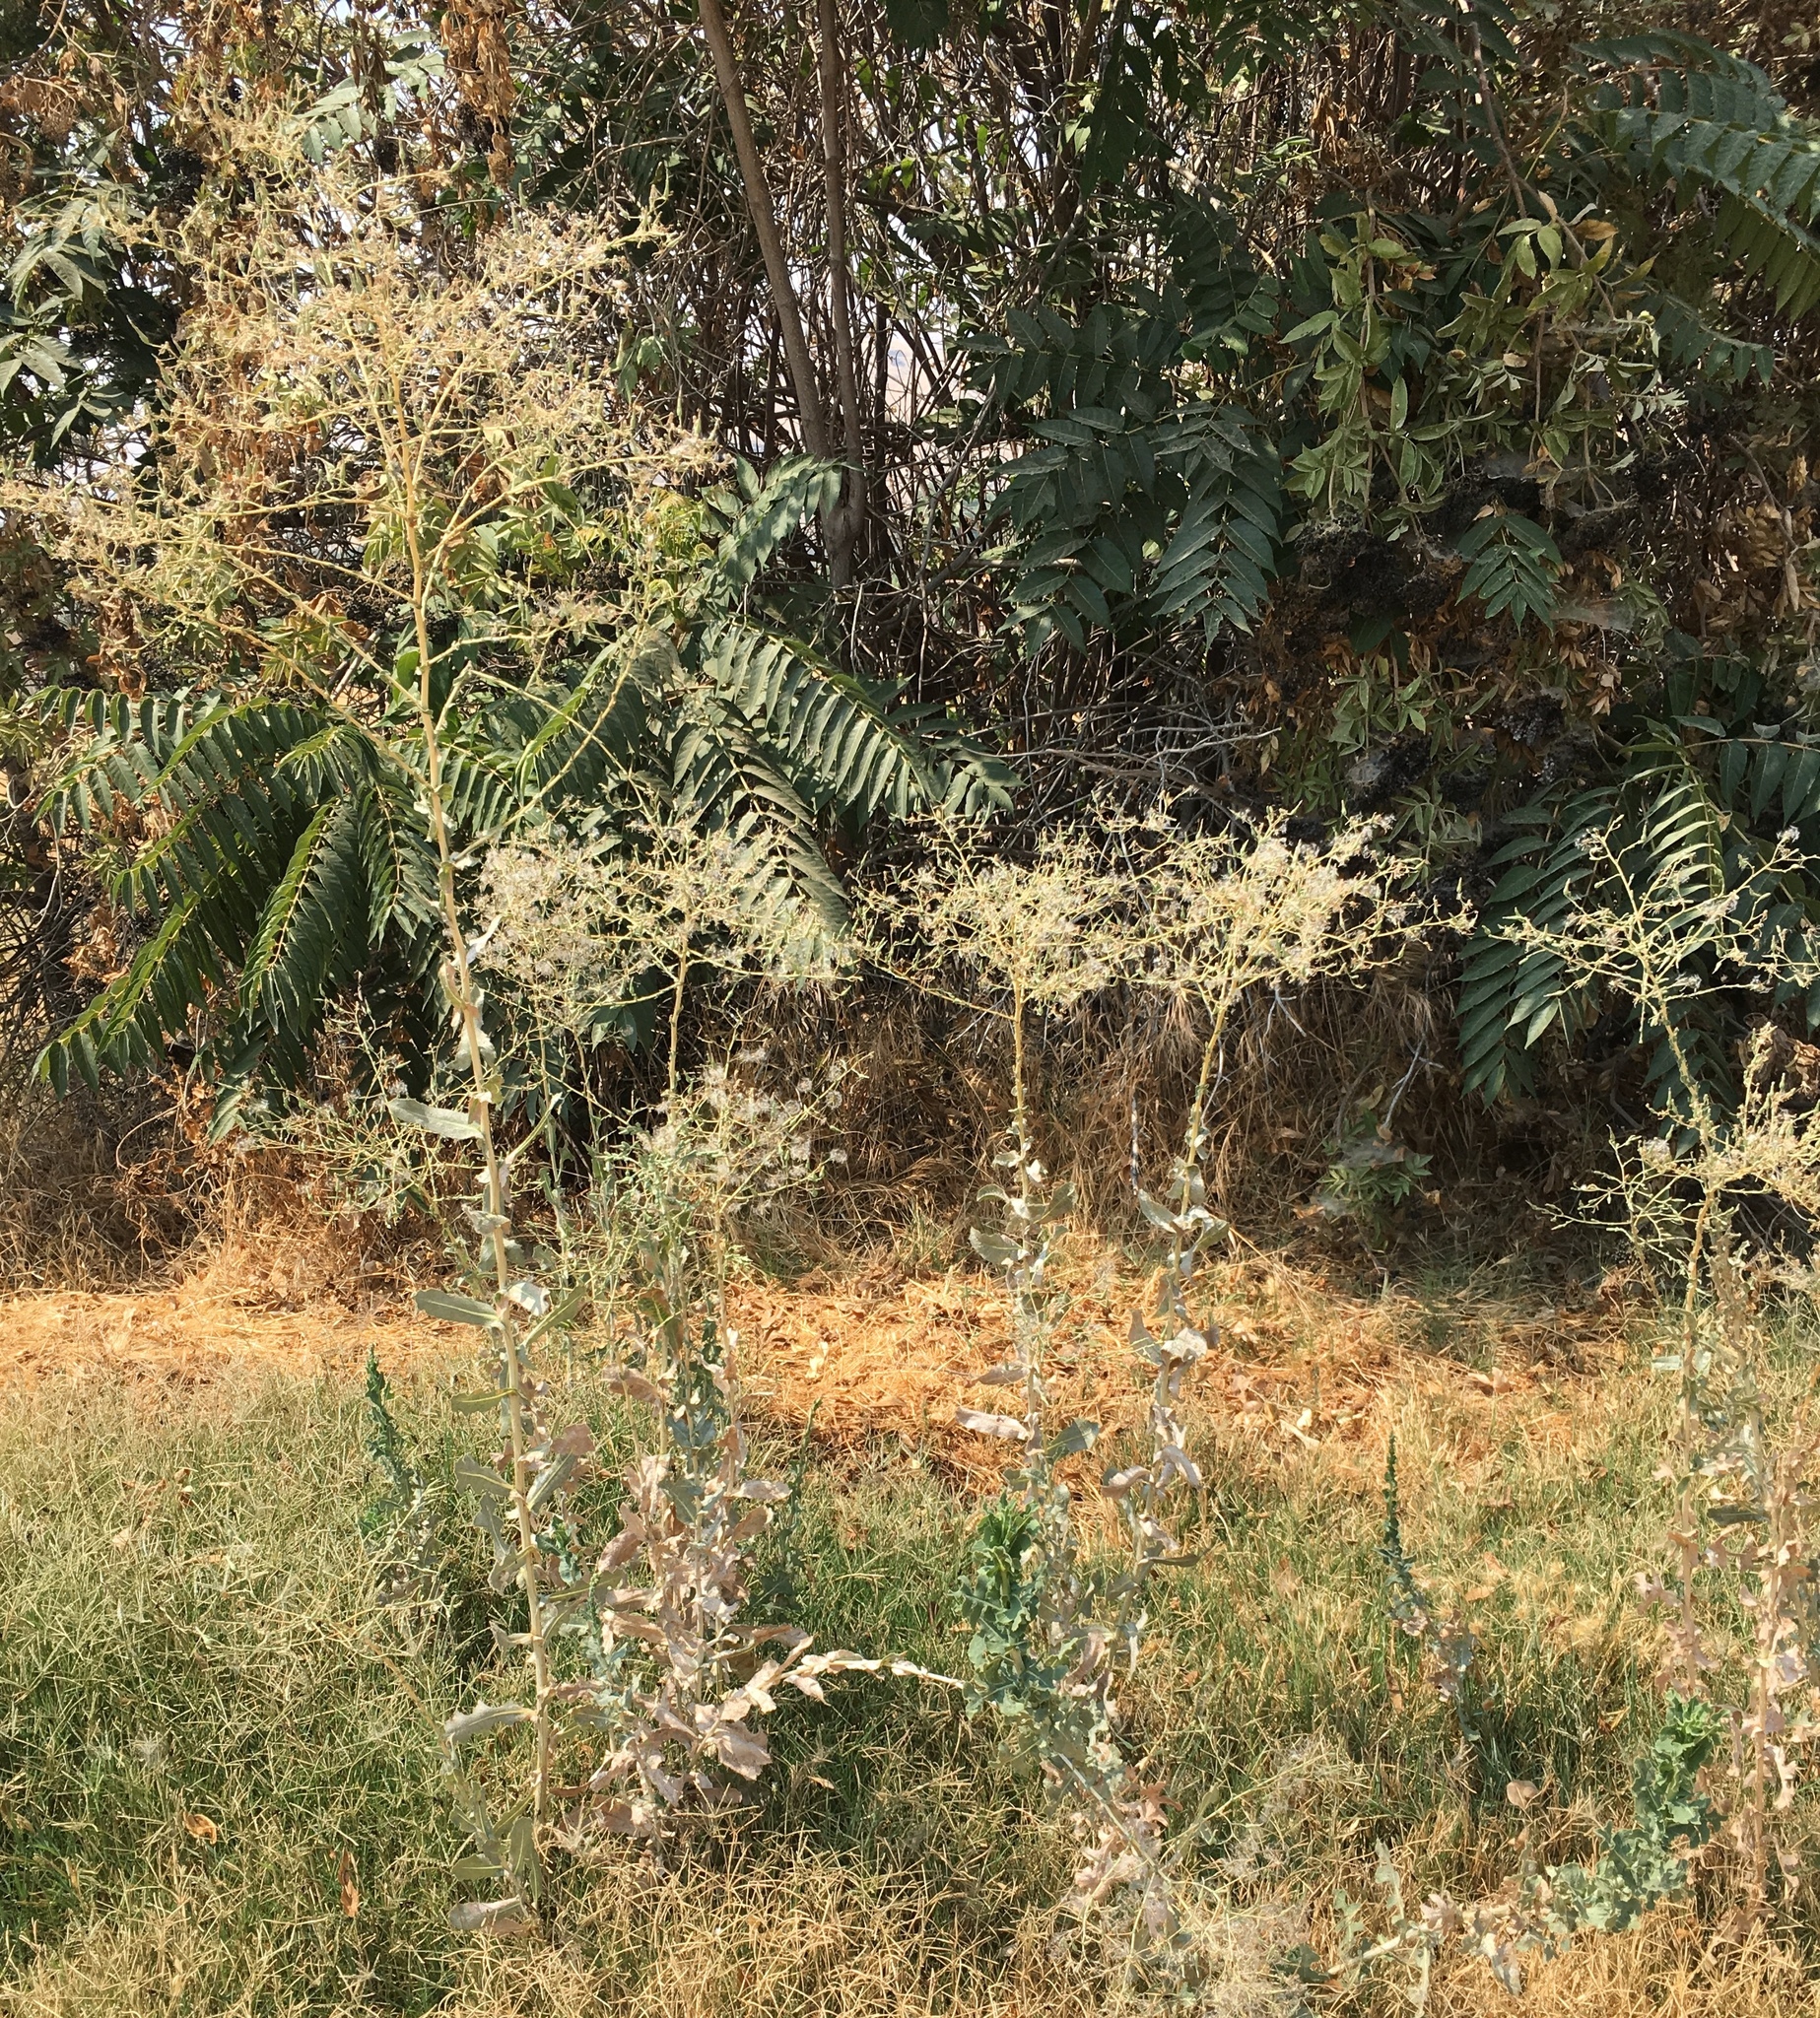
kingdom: Plantae
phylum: Tracheophyta
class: Magnoliopsida
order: Asterales
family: Asteraceae
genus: Lactuca
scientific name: Lactuca serriola
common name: Prickly lettuce
